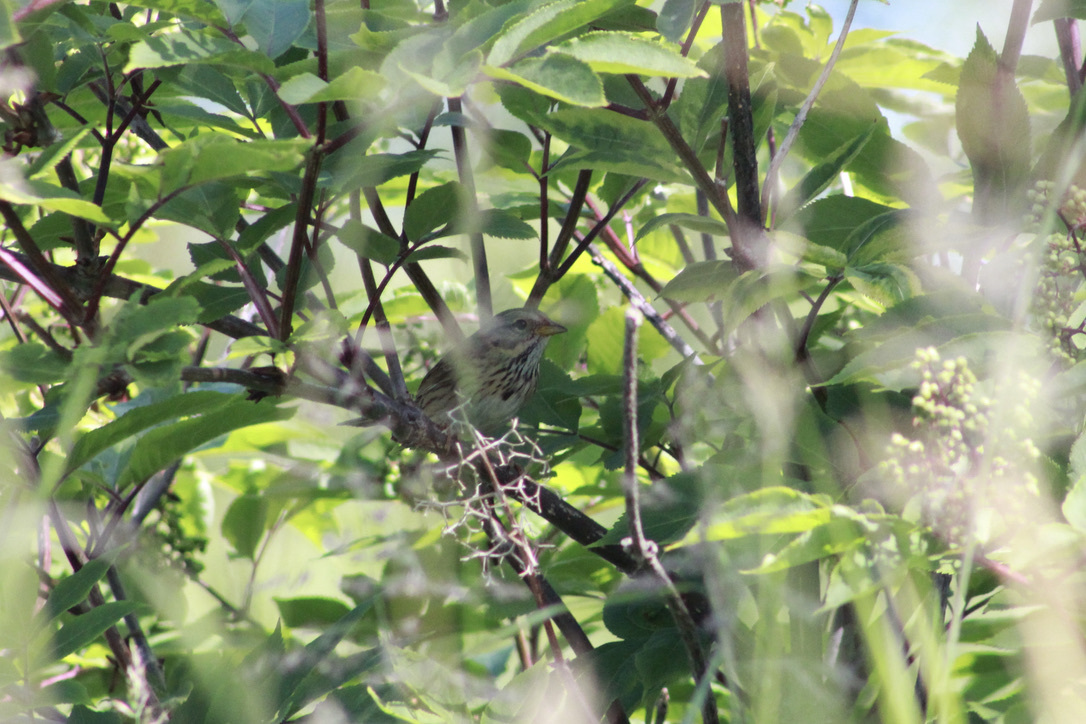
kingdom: Animalia
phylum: Chordata
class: Aves
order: Passeriformes
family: Passerellidae
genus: Melospiza
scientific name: Melospiza lincolnii
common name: Lincoln's sparrow
